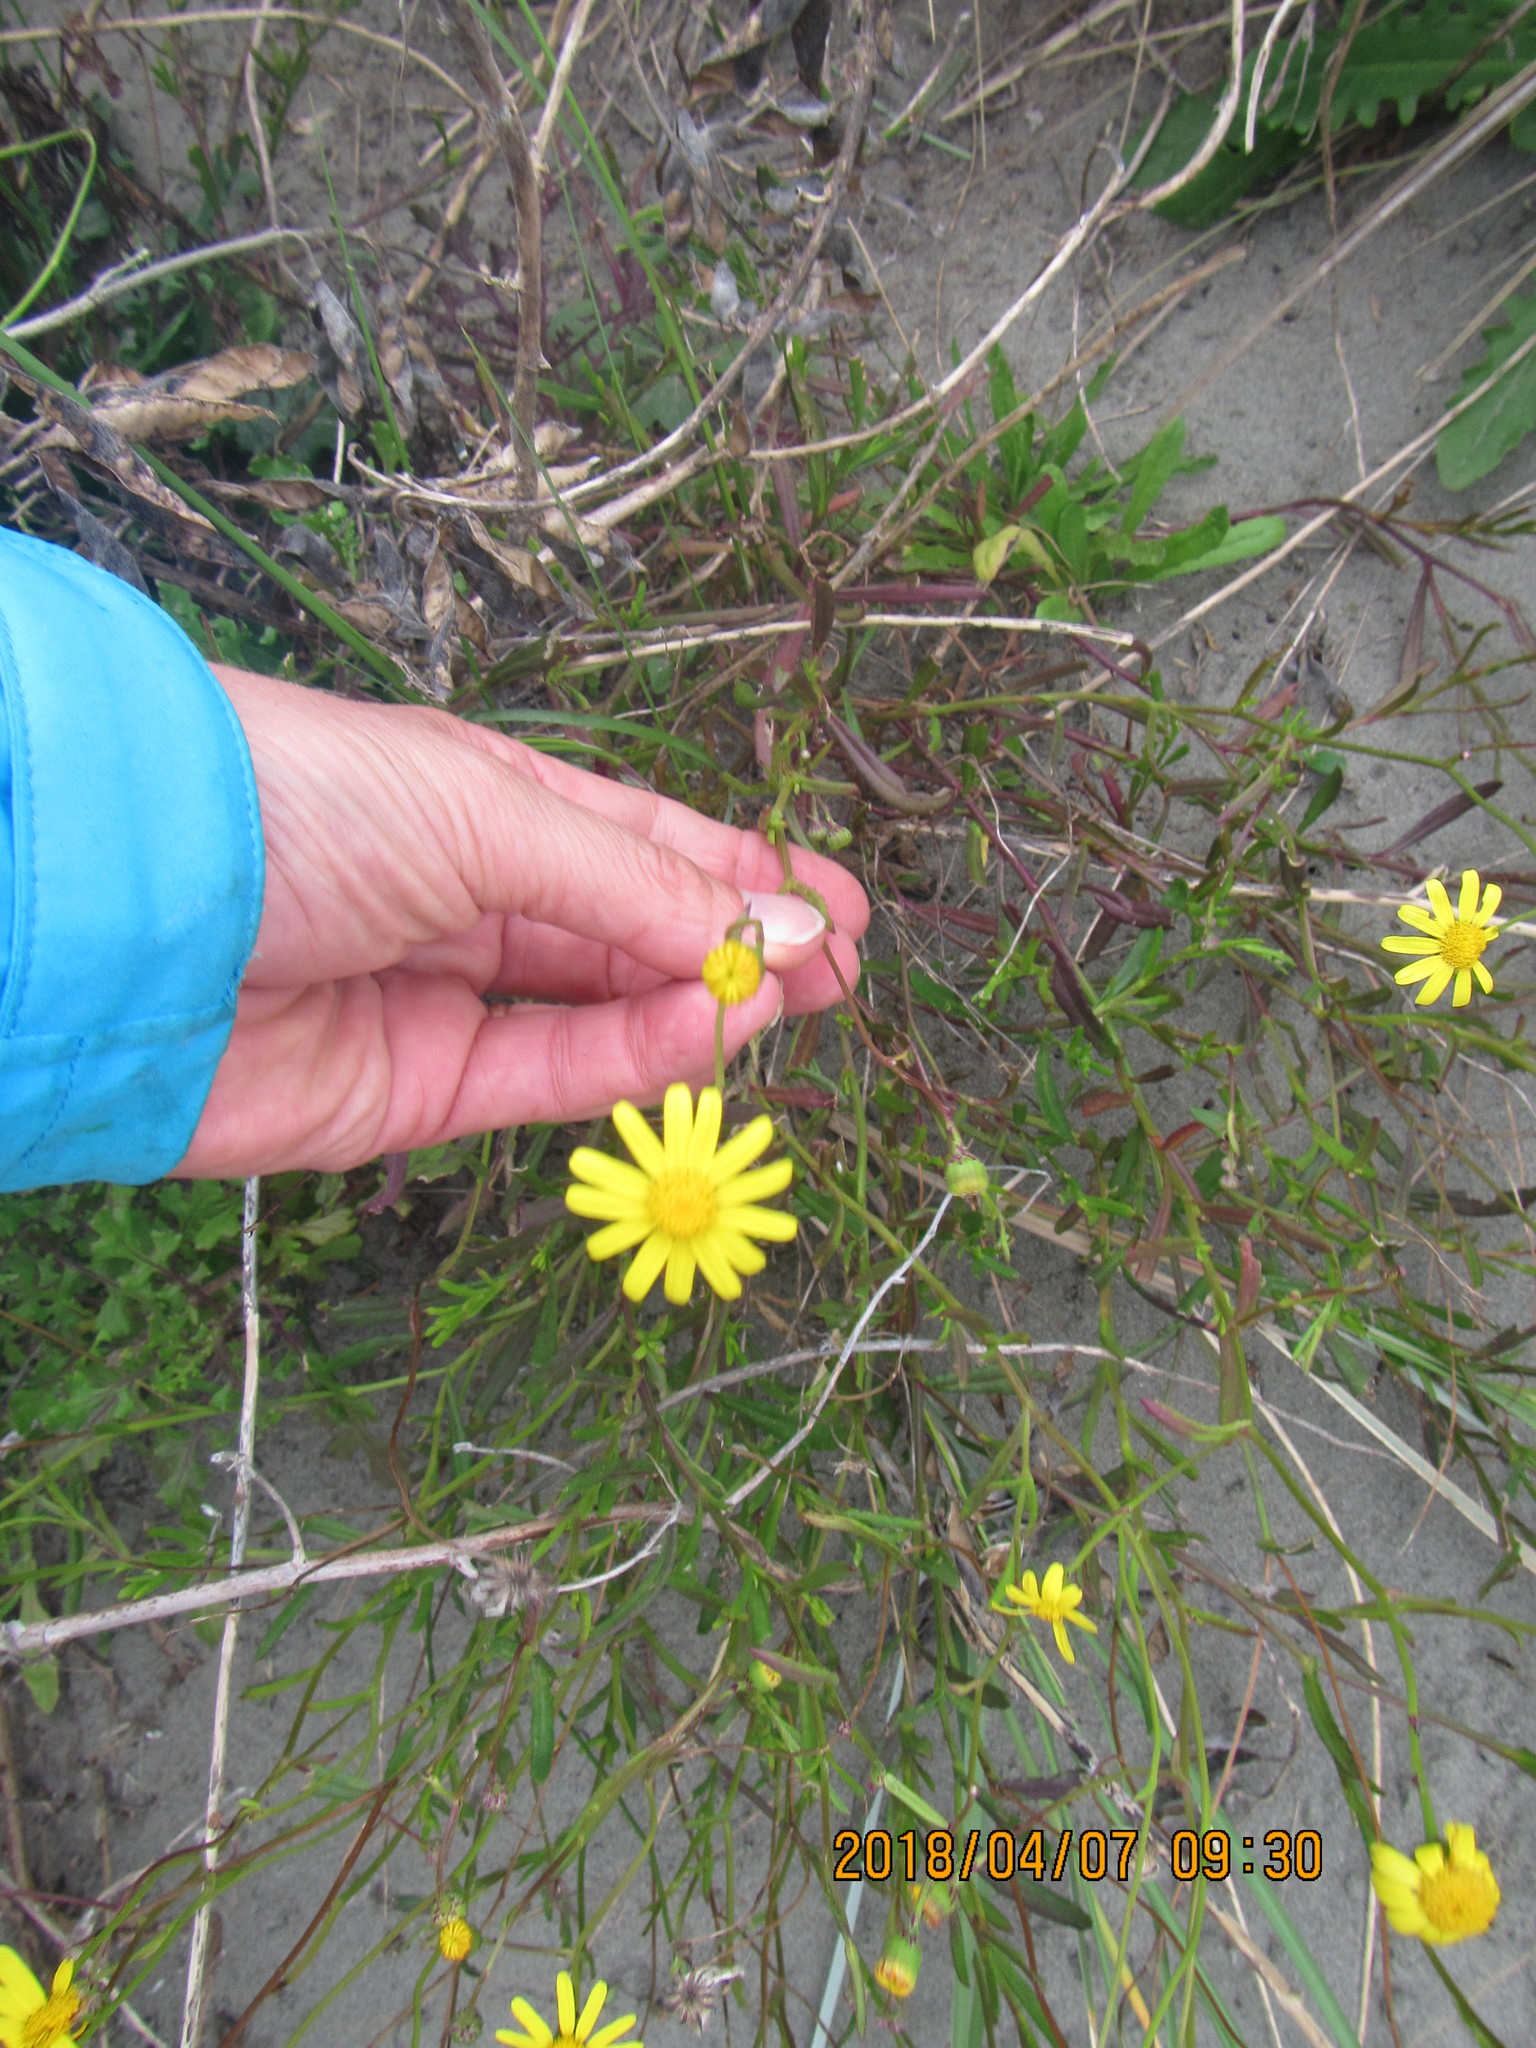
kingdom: Plantae
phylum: Tracheophyta
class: Magnoliopsida
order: Asterales
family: Asteraceae
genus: Senecio
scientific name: Senecio skirrhodon
